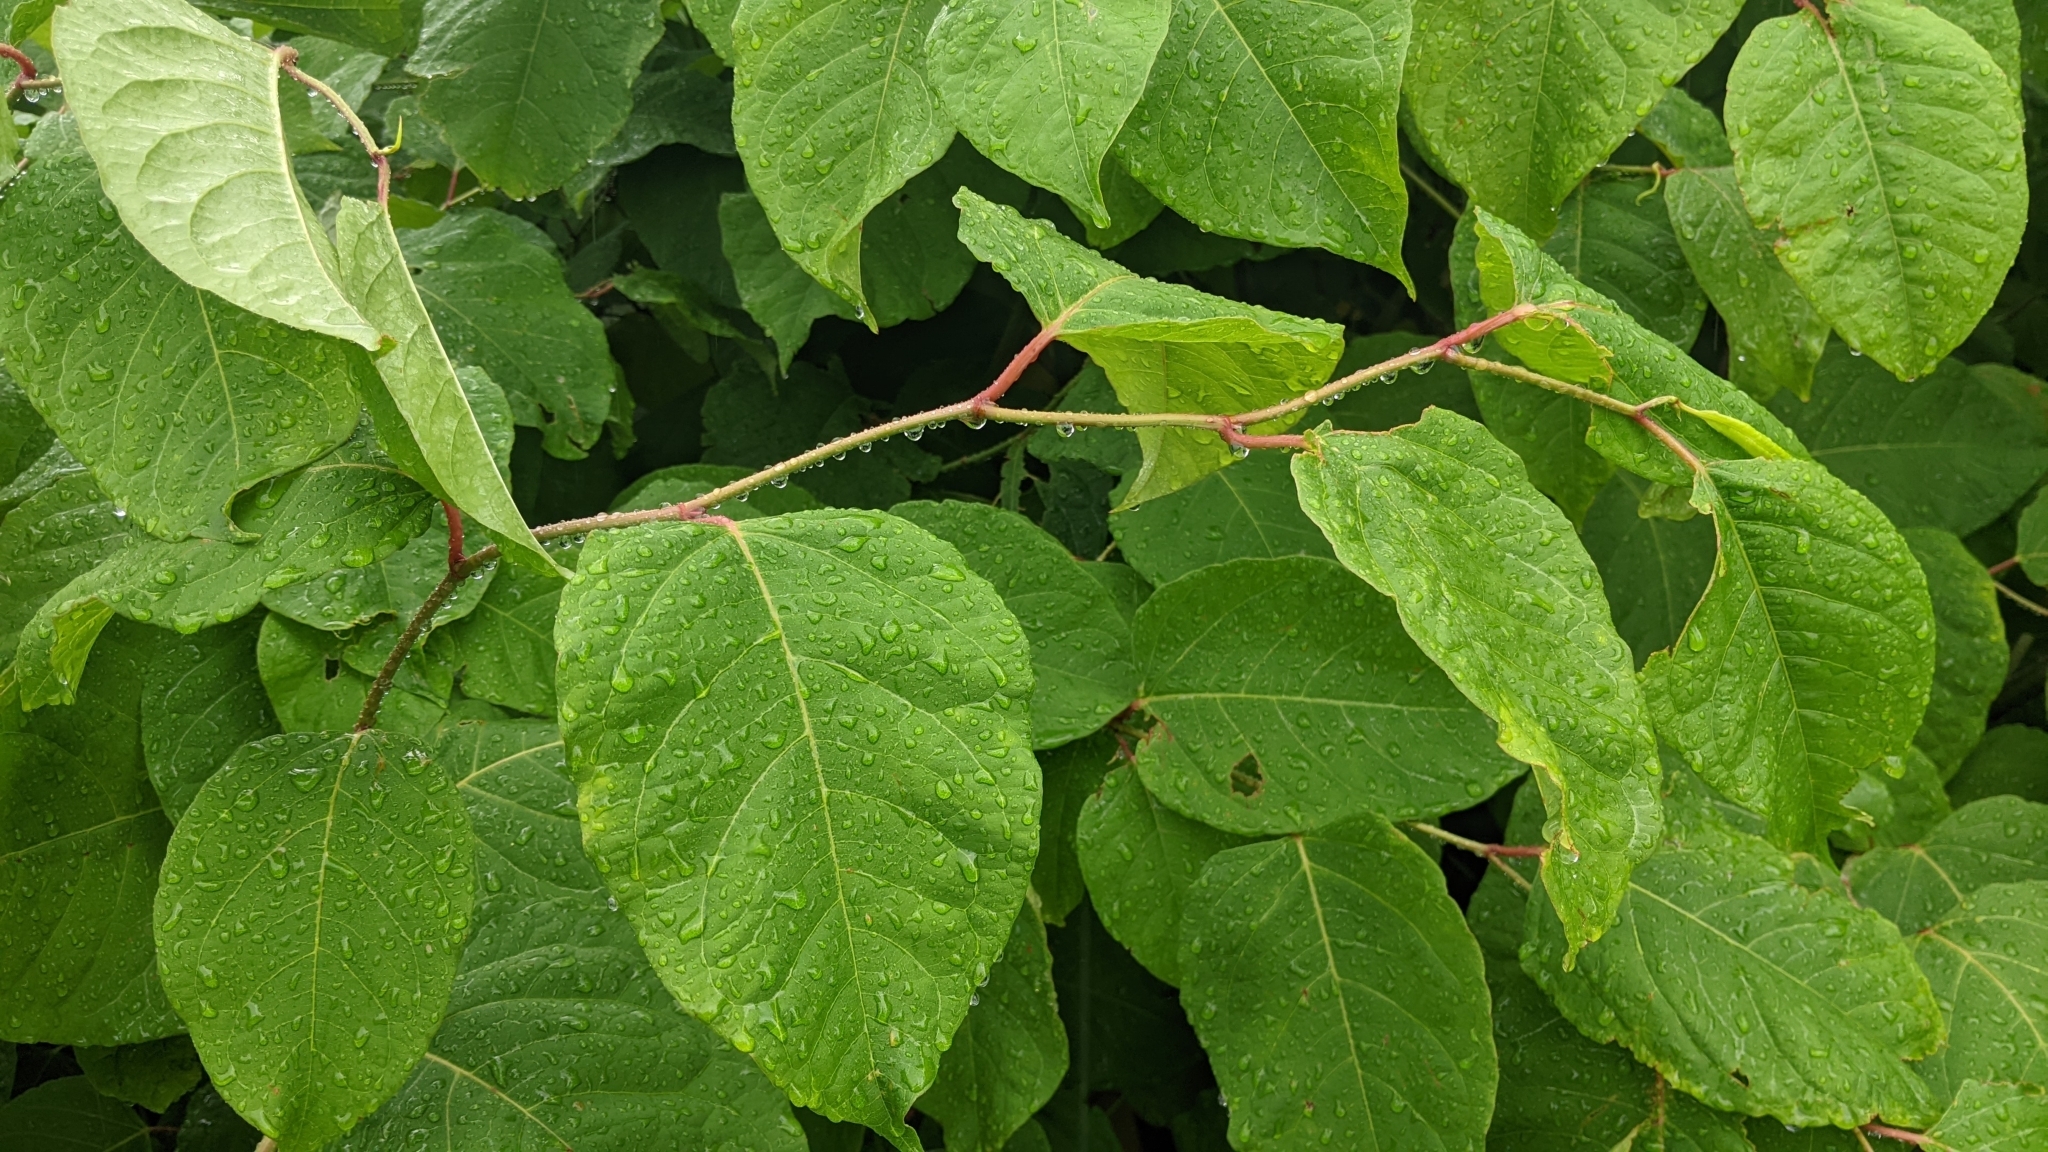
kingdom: Plantae
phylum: Tracheophyta
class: Magnoliopsida
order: Caryophyllales
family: Polygonaceae
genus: Reynoutria
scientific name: Reynoutria japonica
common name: Japanese knotweed
